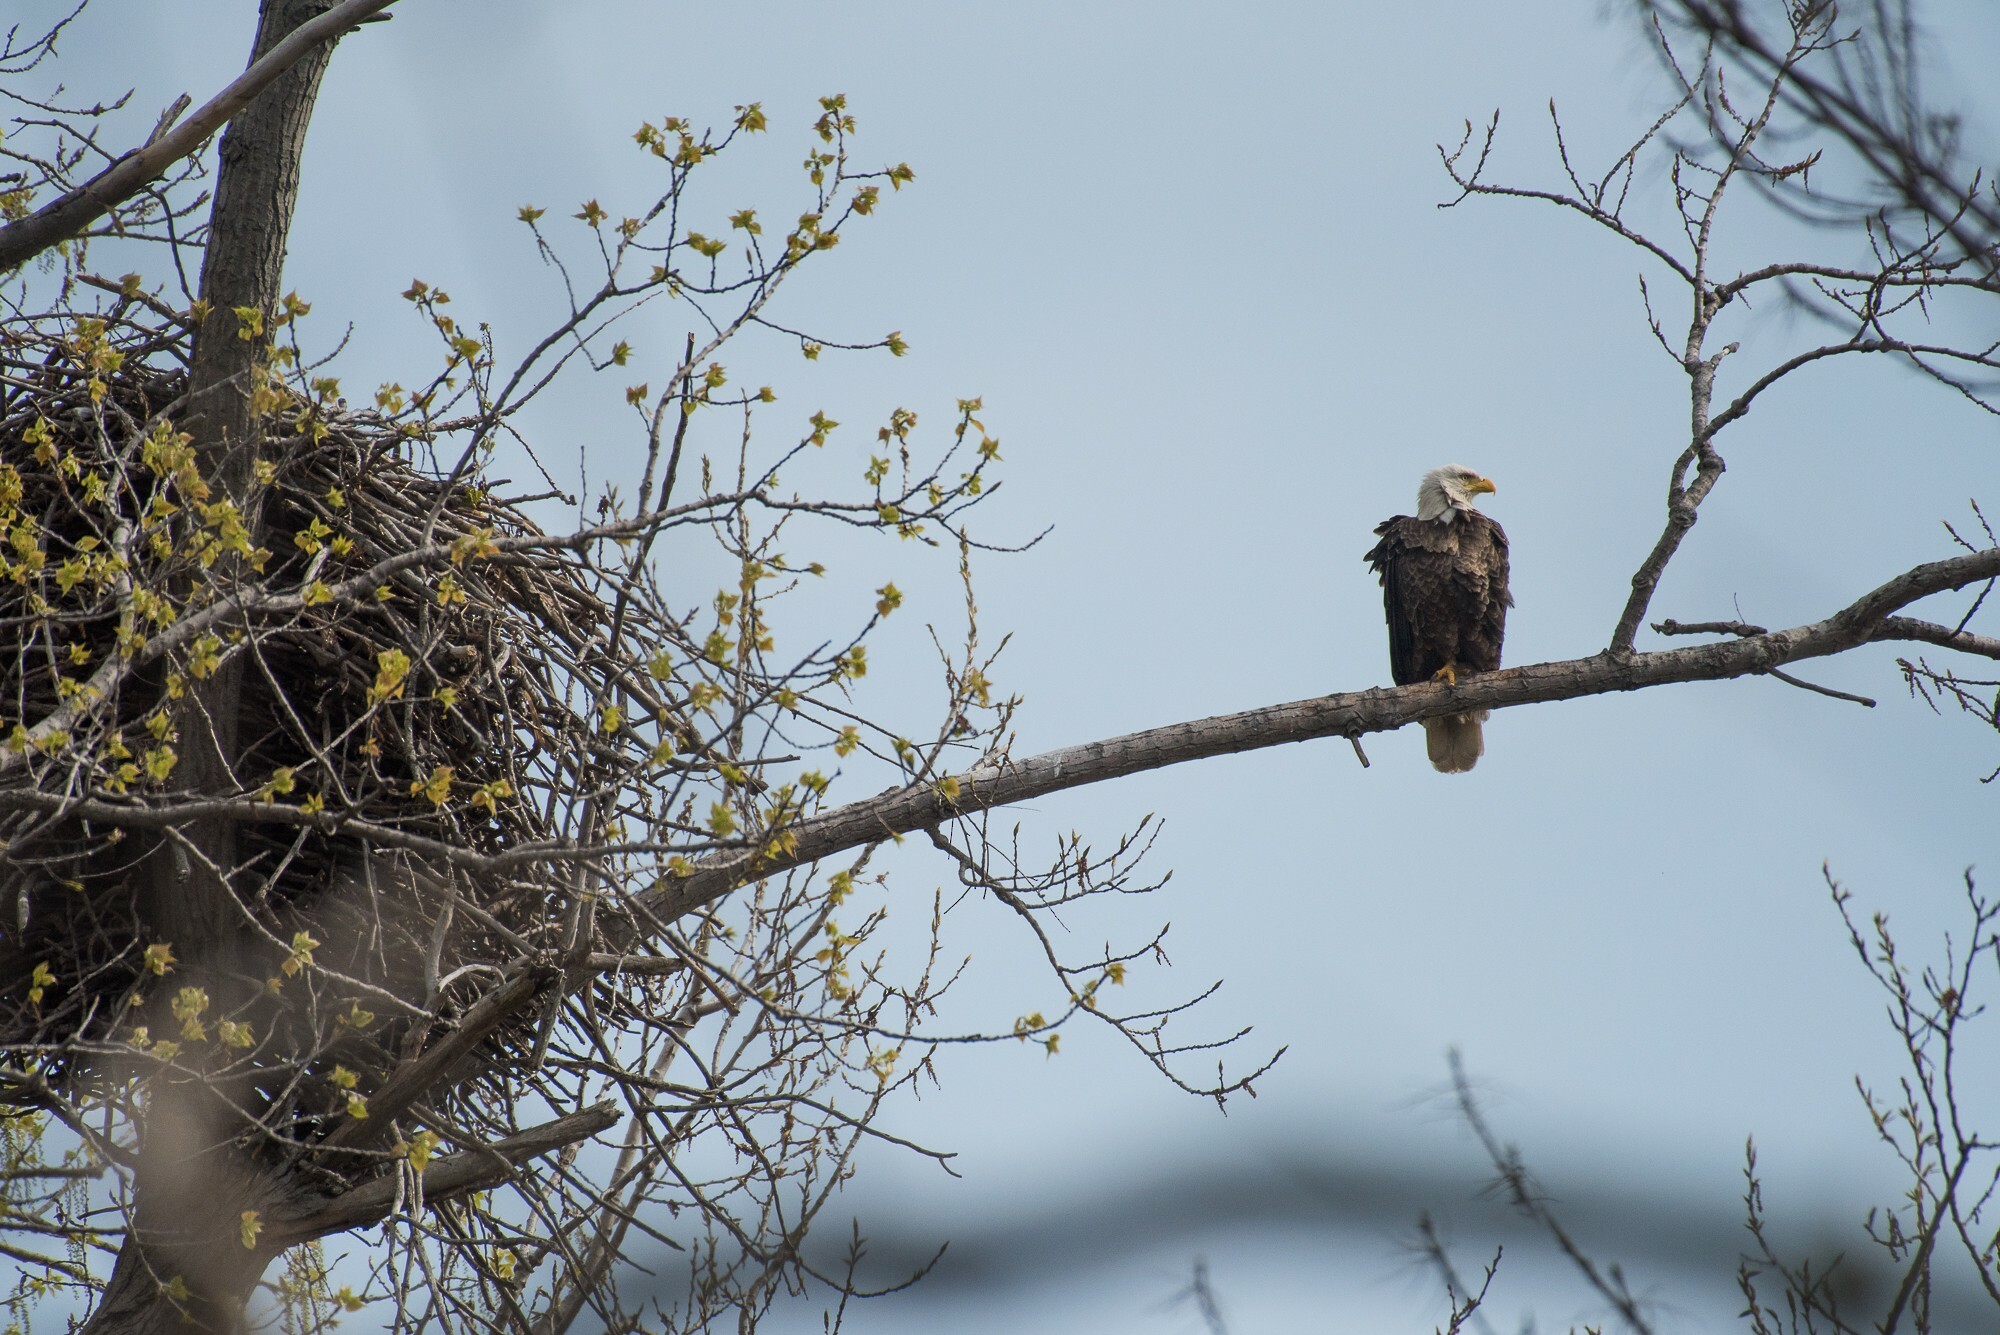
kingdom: Animalia
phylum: Chordata
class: Aves
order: Accipitriformes
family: Accipitridae
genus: Haliaeetus
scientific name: Haliaeetus leucocephalus
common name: Bald eagle
